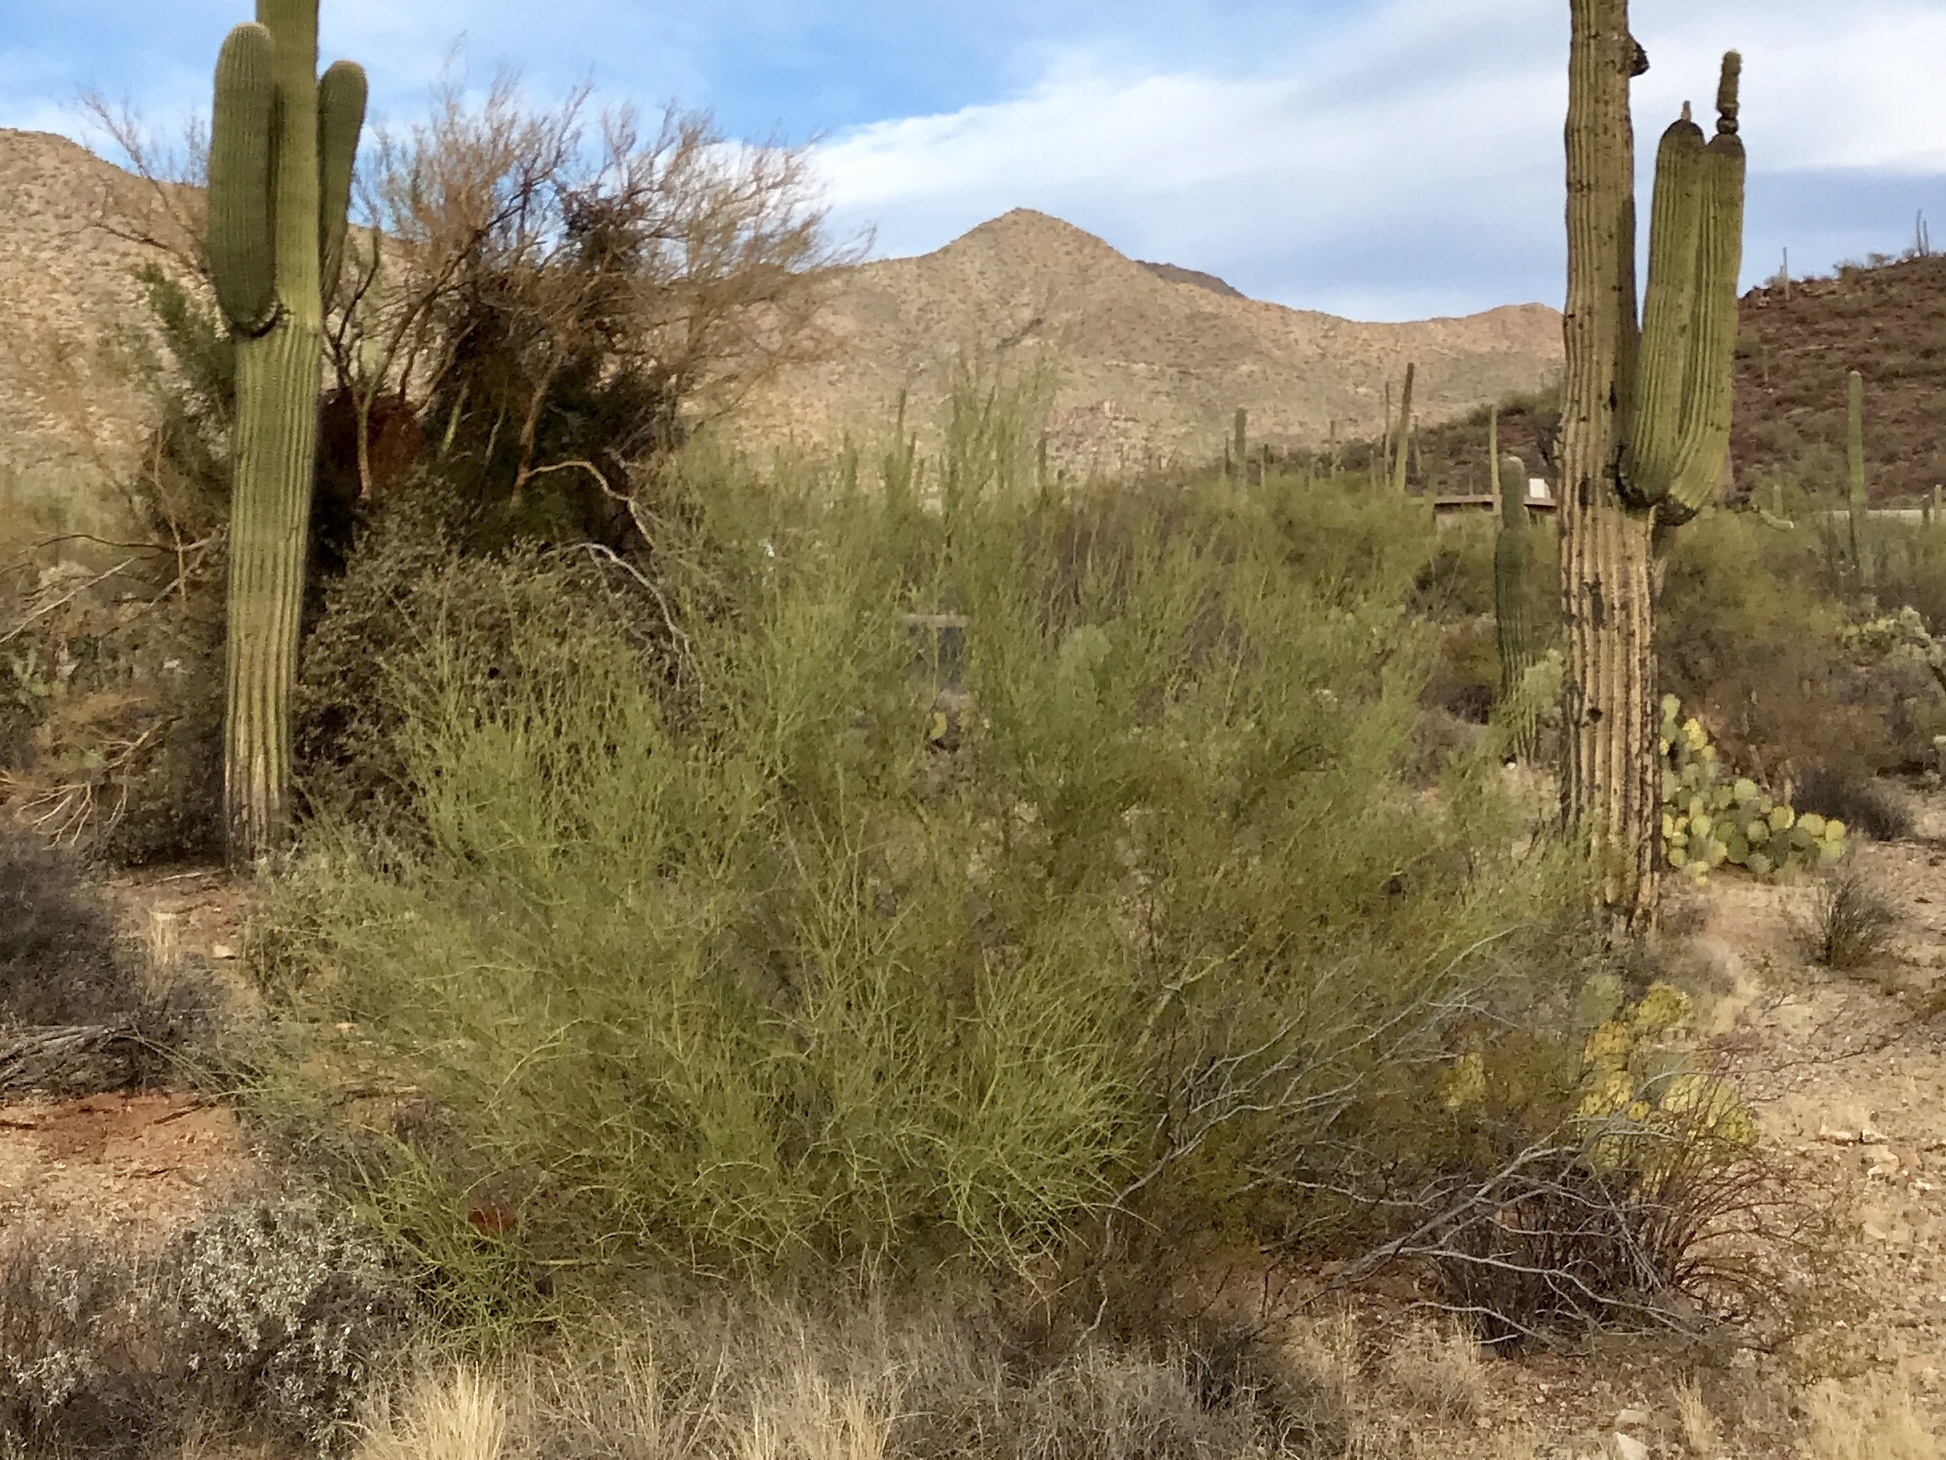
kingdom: Plantae
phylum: Tracheophyta
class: Magnoliopsida
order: Fabales
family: Fabaceae
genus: Parkinsonia
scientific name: Parkinsonia microphylla
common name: Yellow paloverde
